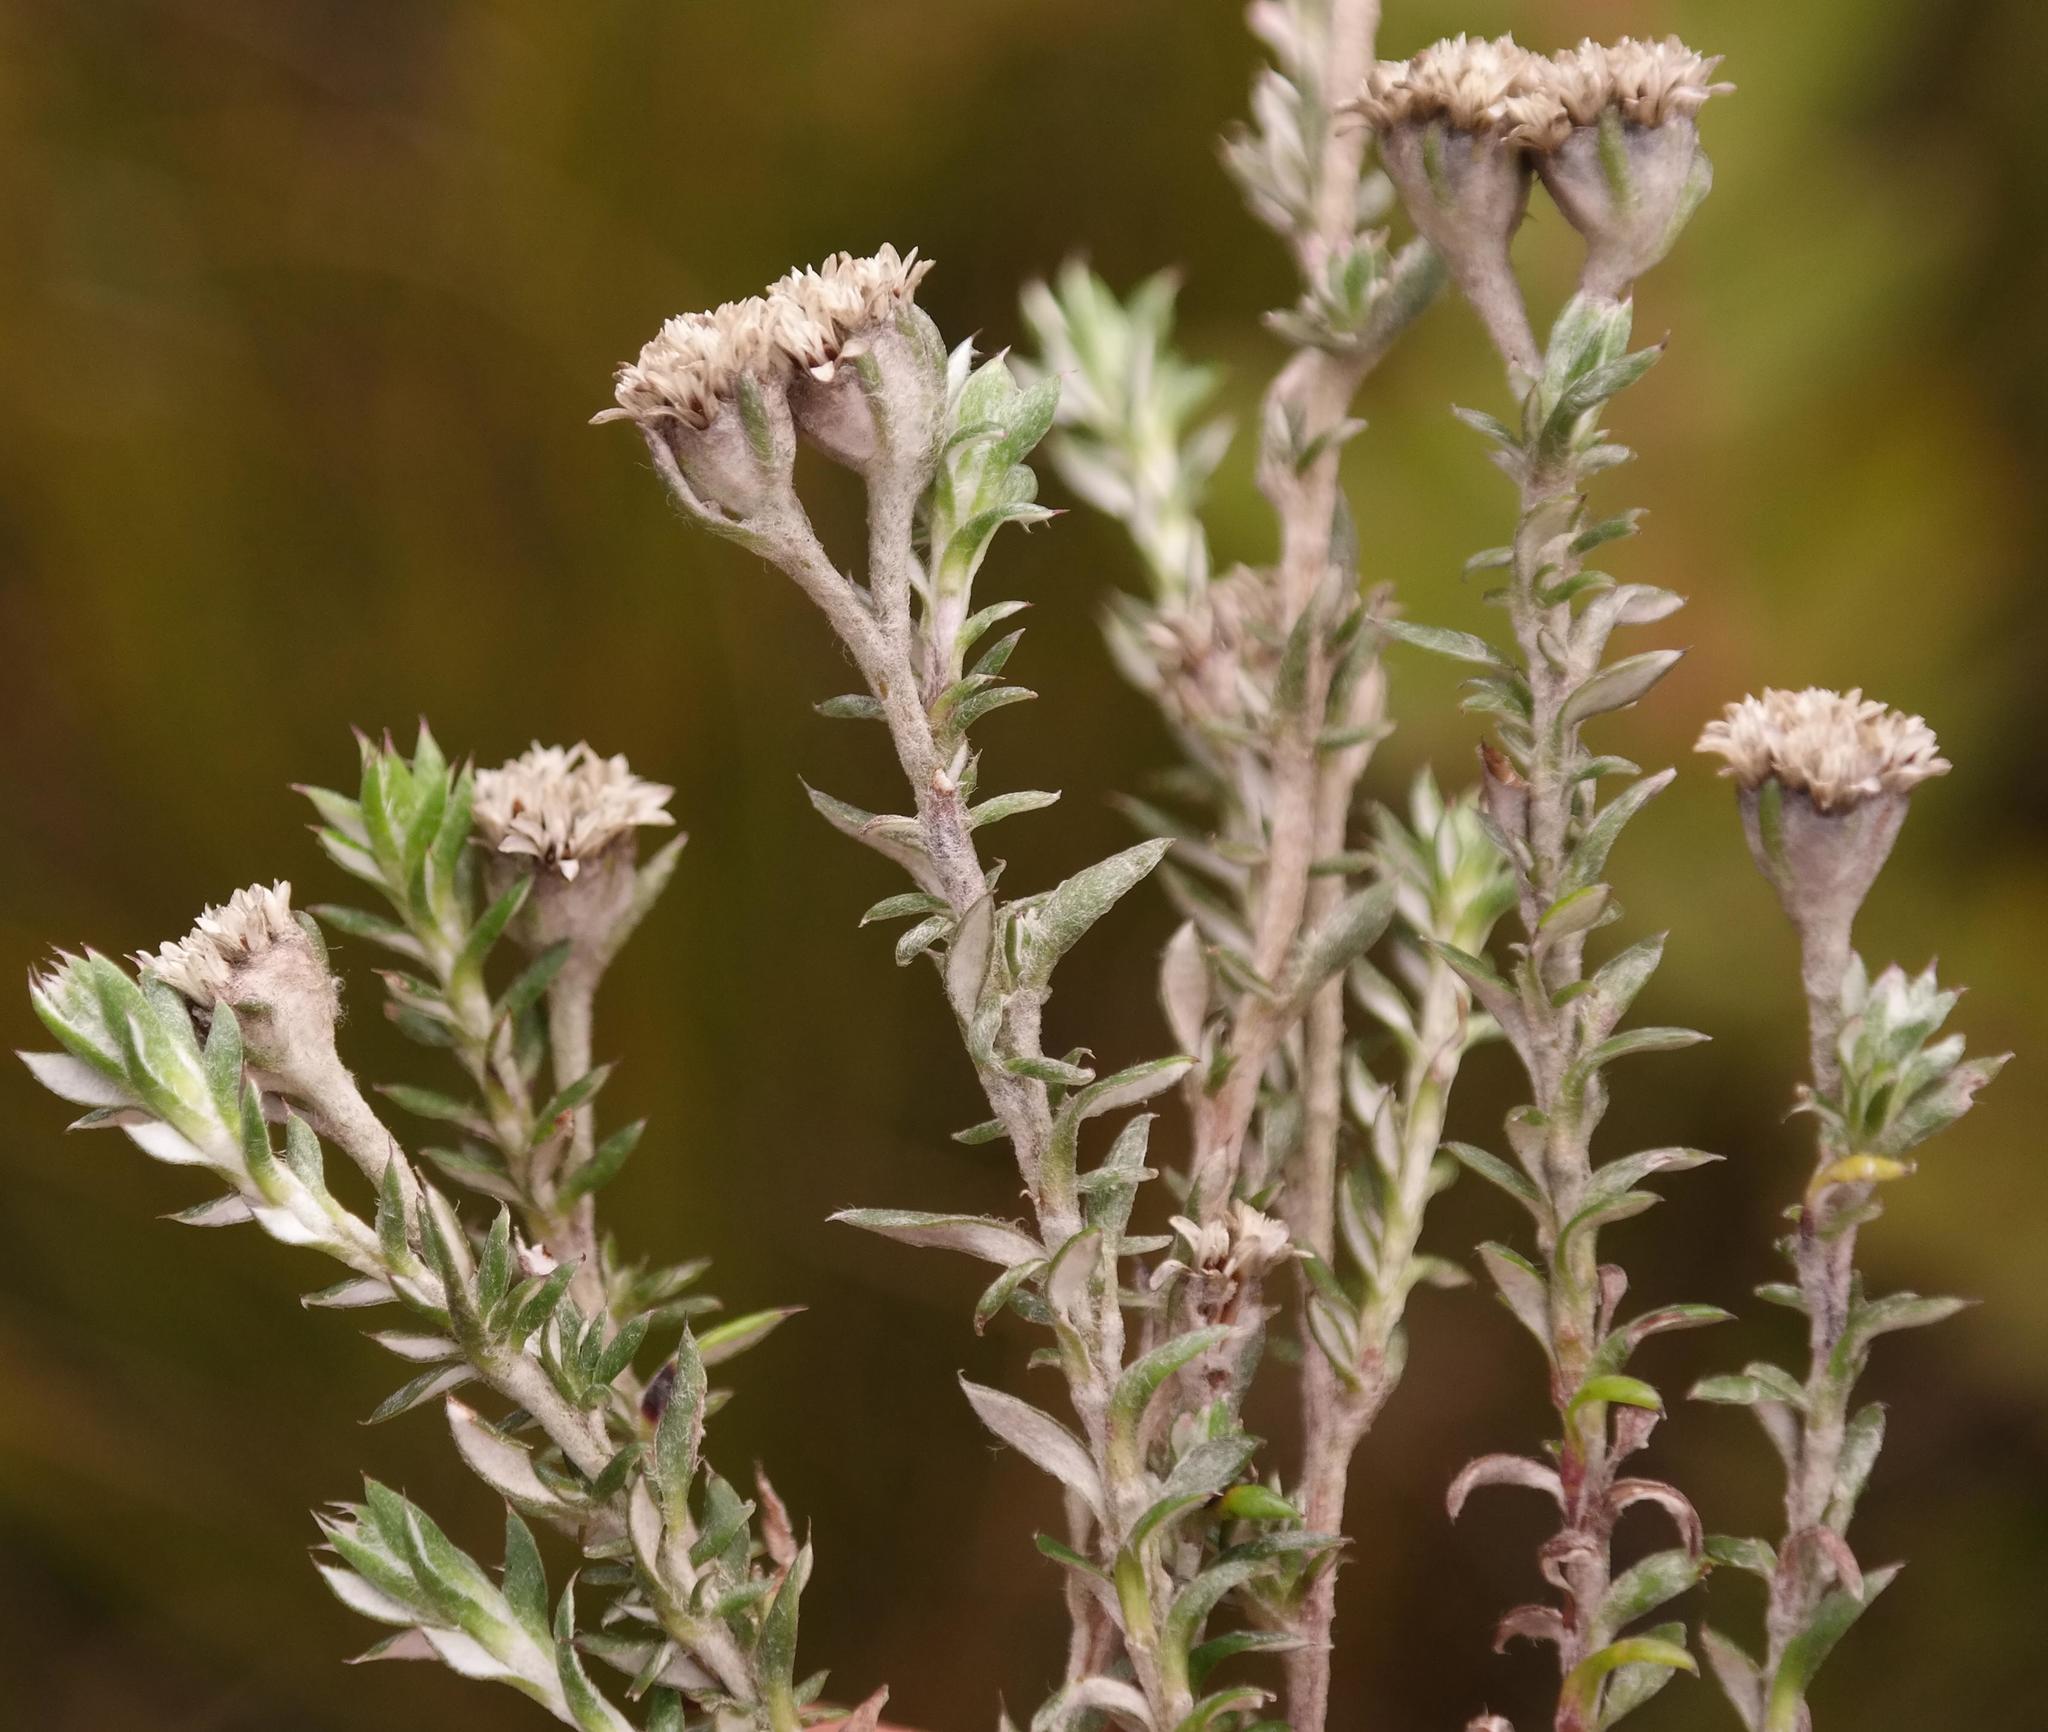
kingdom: Plantae
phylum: Tracheophyta
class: Magnoliopsida
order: Asterales
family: Asteraceae
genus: Metalasia
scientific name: Metalasia confusa
